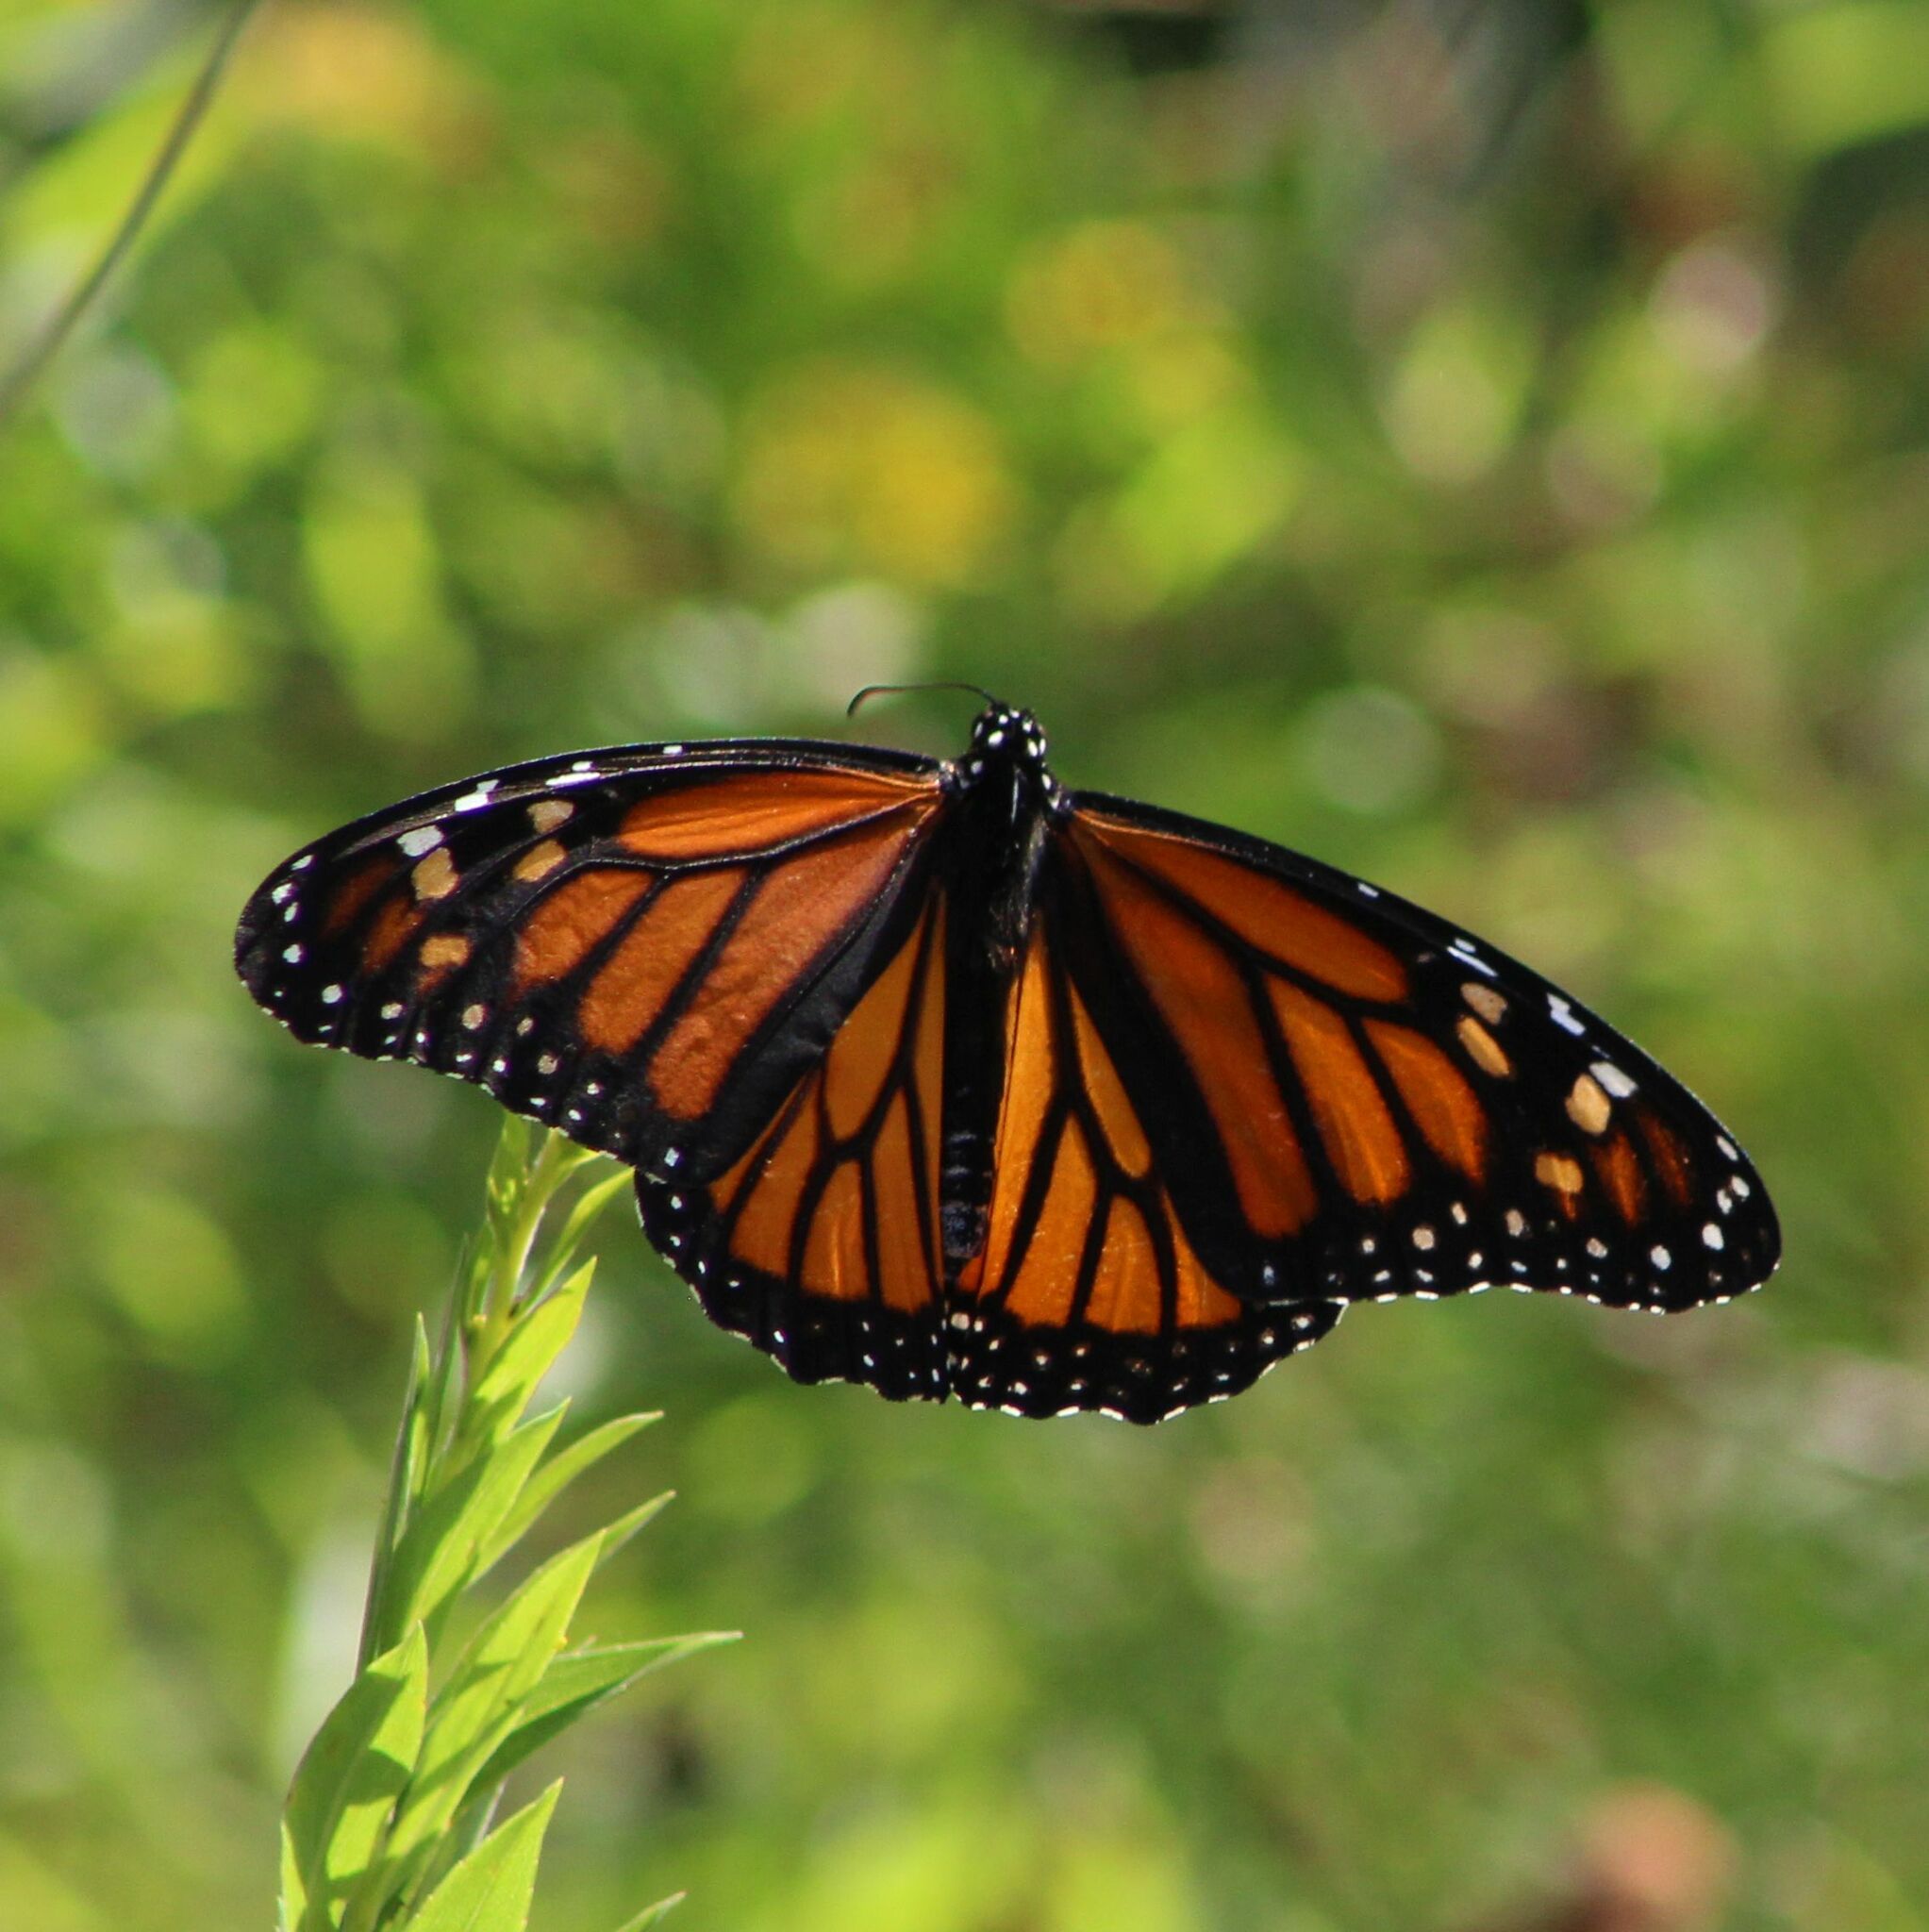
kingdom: Animalia
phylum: Arthropoda
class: Insecta
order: Lepidoptera
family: Nymphalidae
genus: Danaus
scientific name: Danaus plexippus
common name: Monarch
